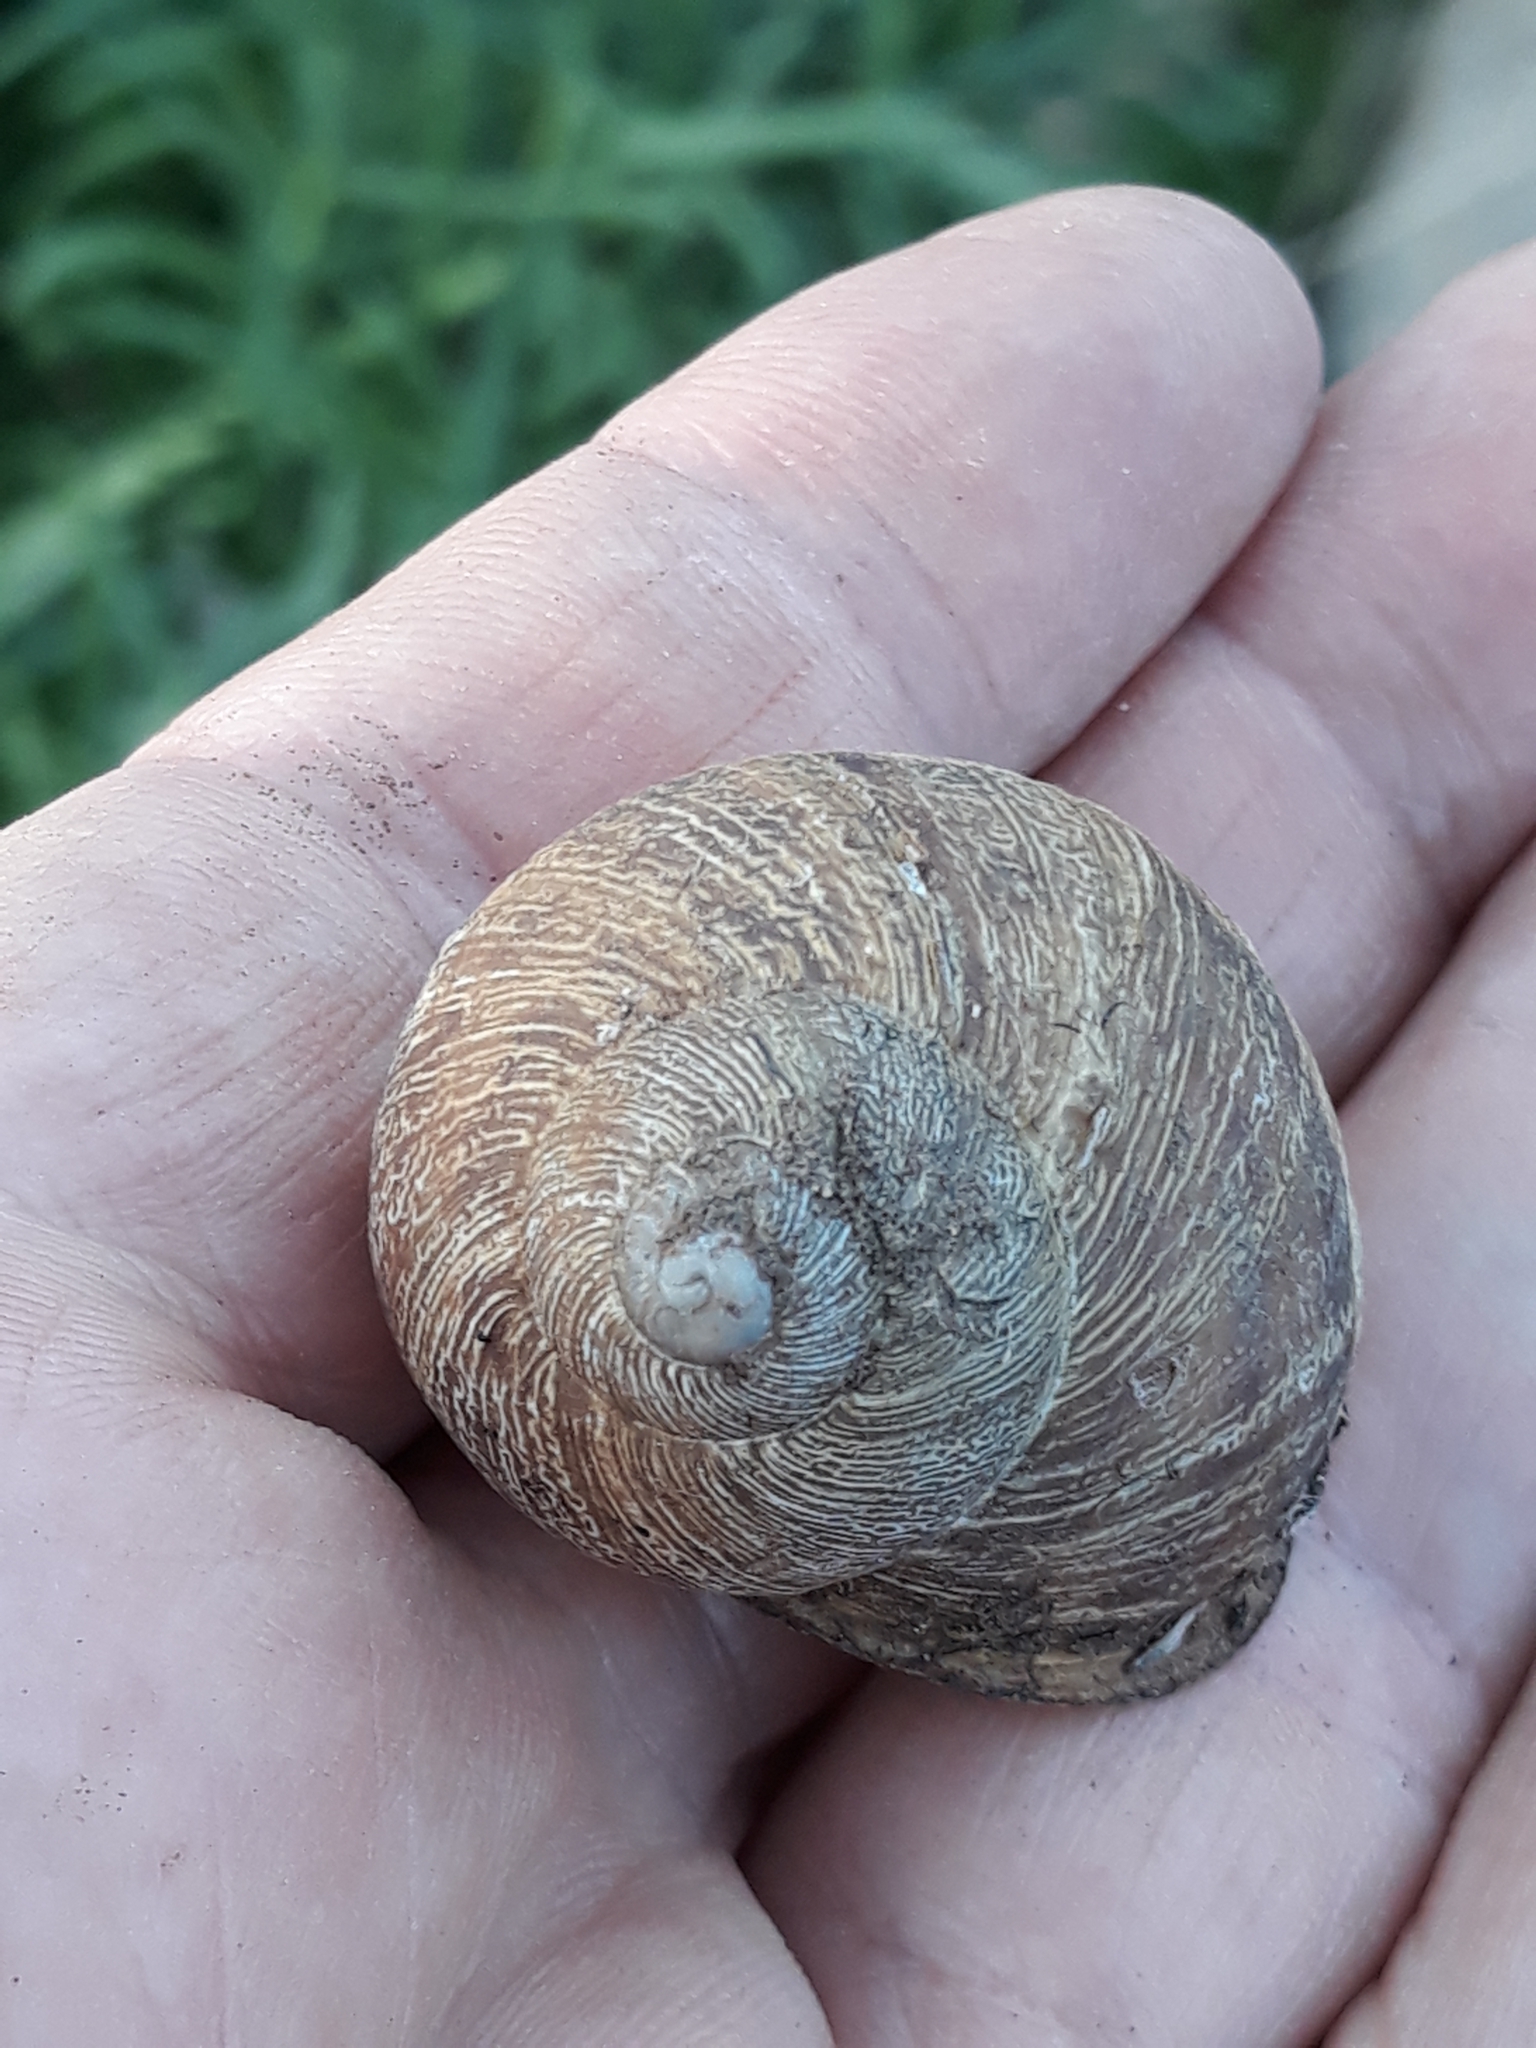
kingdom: Animalia
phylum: Mollusca
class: Gastropoda
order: Stylommatophora
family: Helicidae
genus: Cornu
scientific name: Cornu aspersum
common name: Brown garden snail
